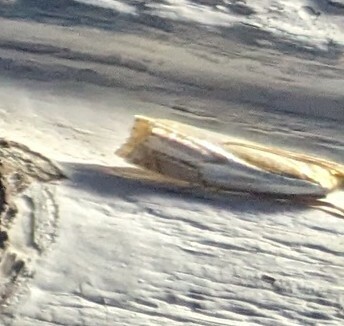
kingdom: Animalia
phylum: Arthropoda
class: Insecta
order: Lepidoptera
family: Crambidae
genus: Crambus
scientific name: Crambus agitatellus
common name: Double-banded grass-veneer
